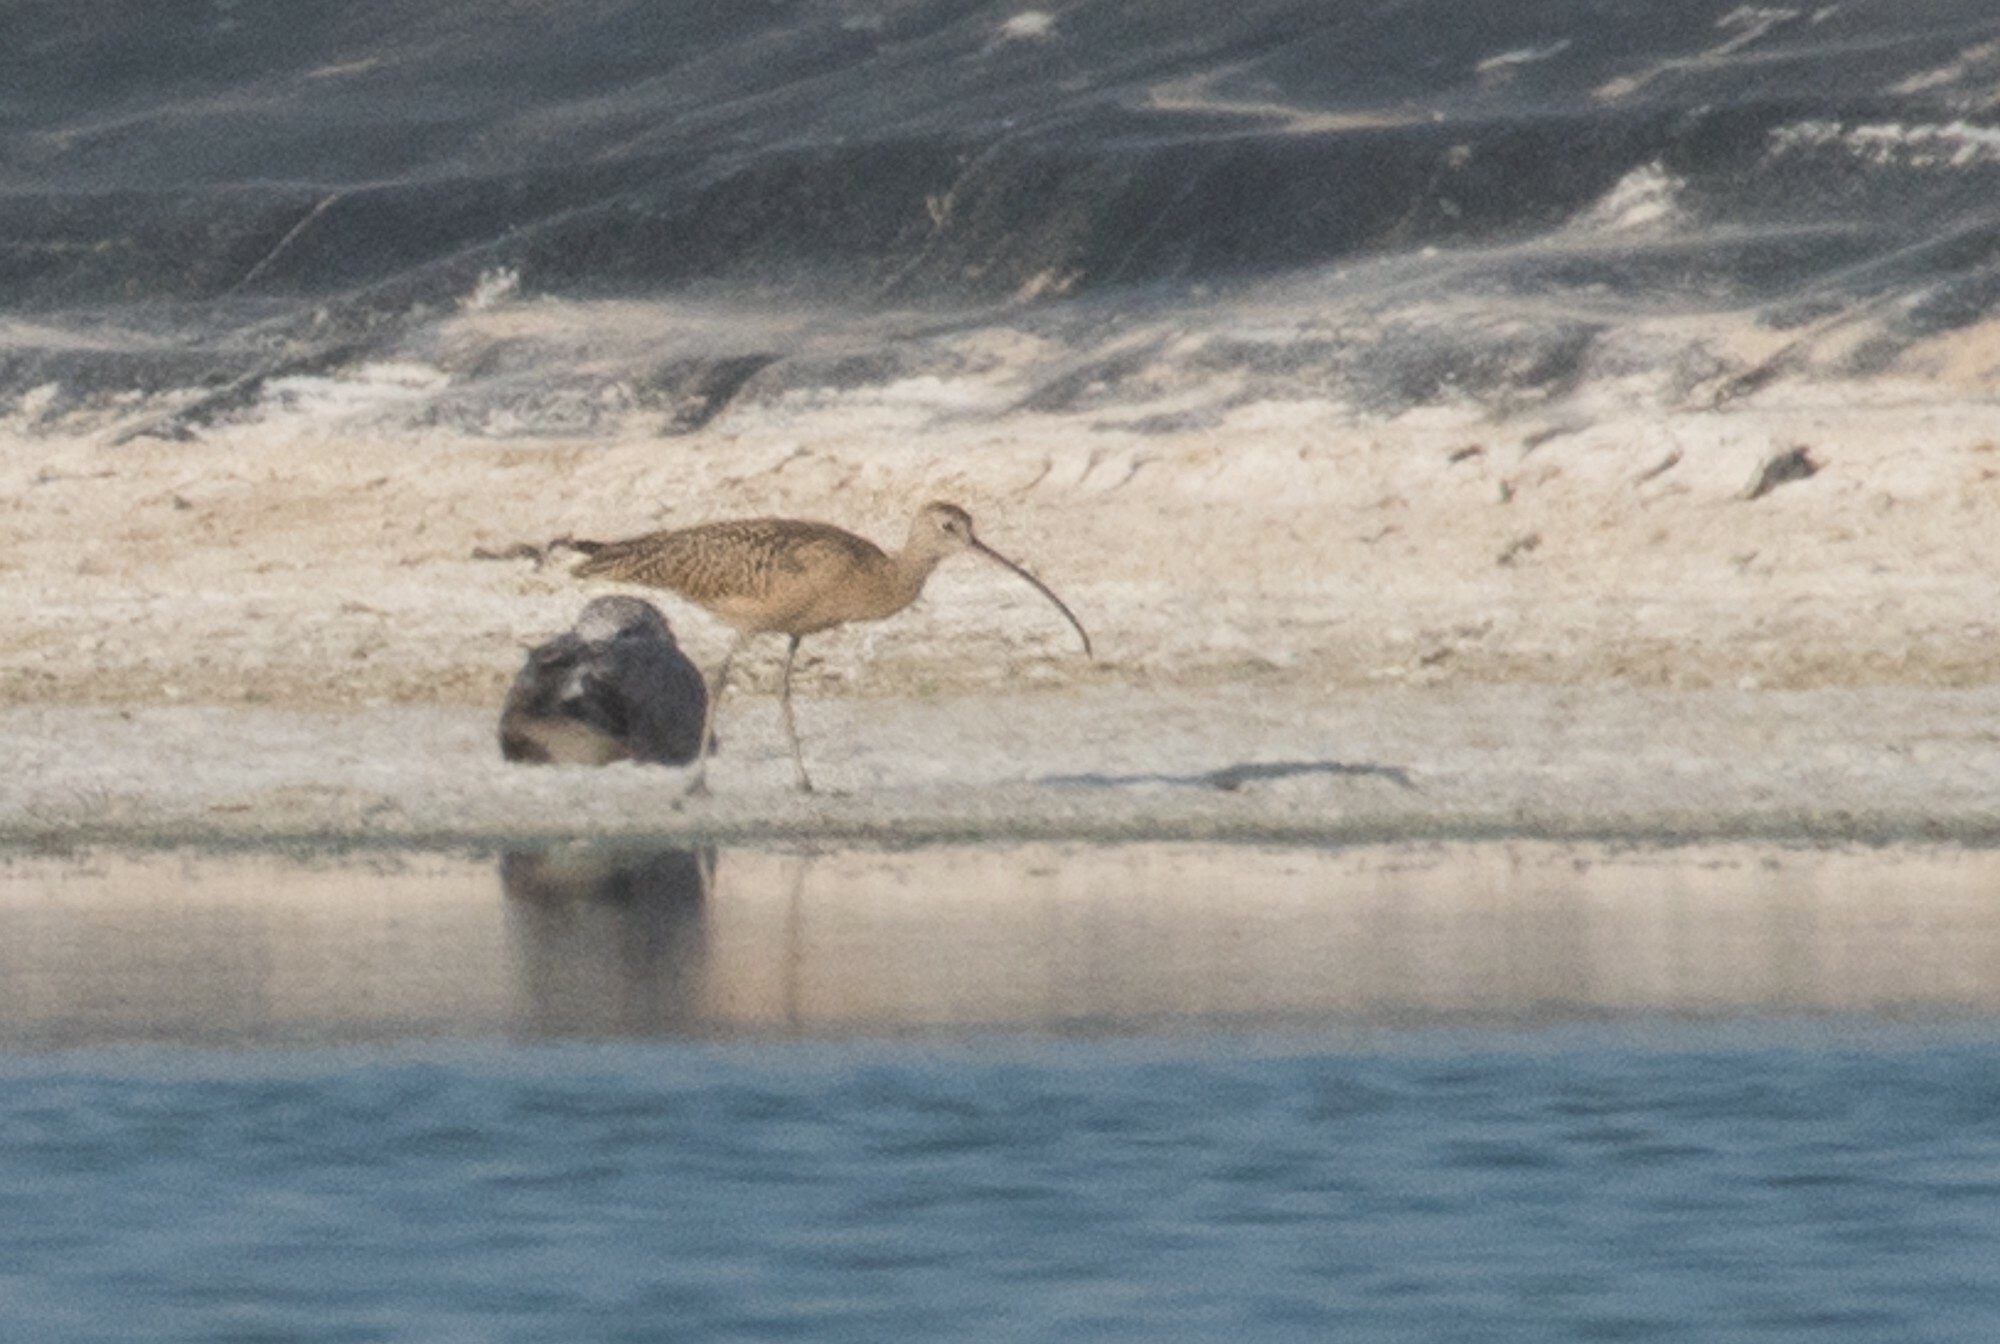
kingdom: Animalia
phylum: Chordata
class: Aves
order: Charadriiformes
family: Scolopacidae
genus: Numenius
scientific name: Numenius americanus
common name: Long-billed curlew
